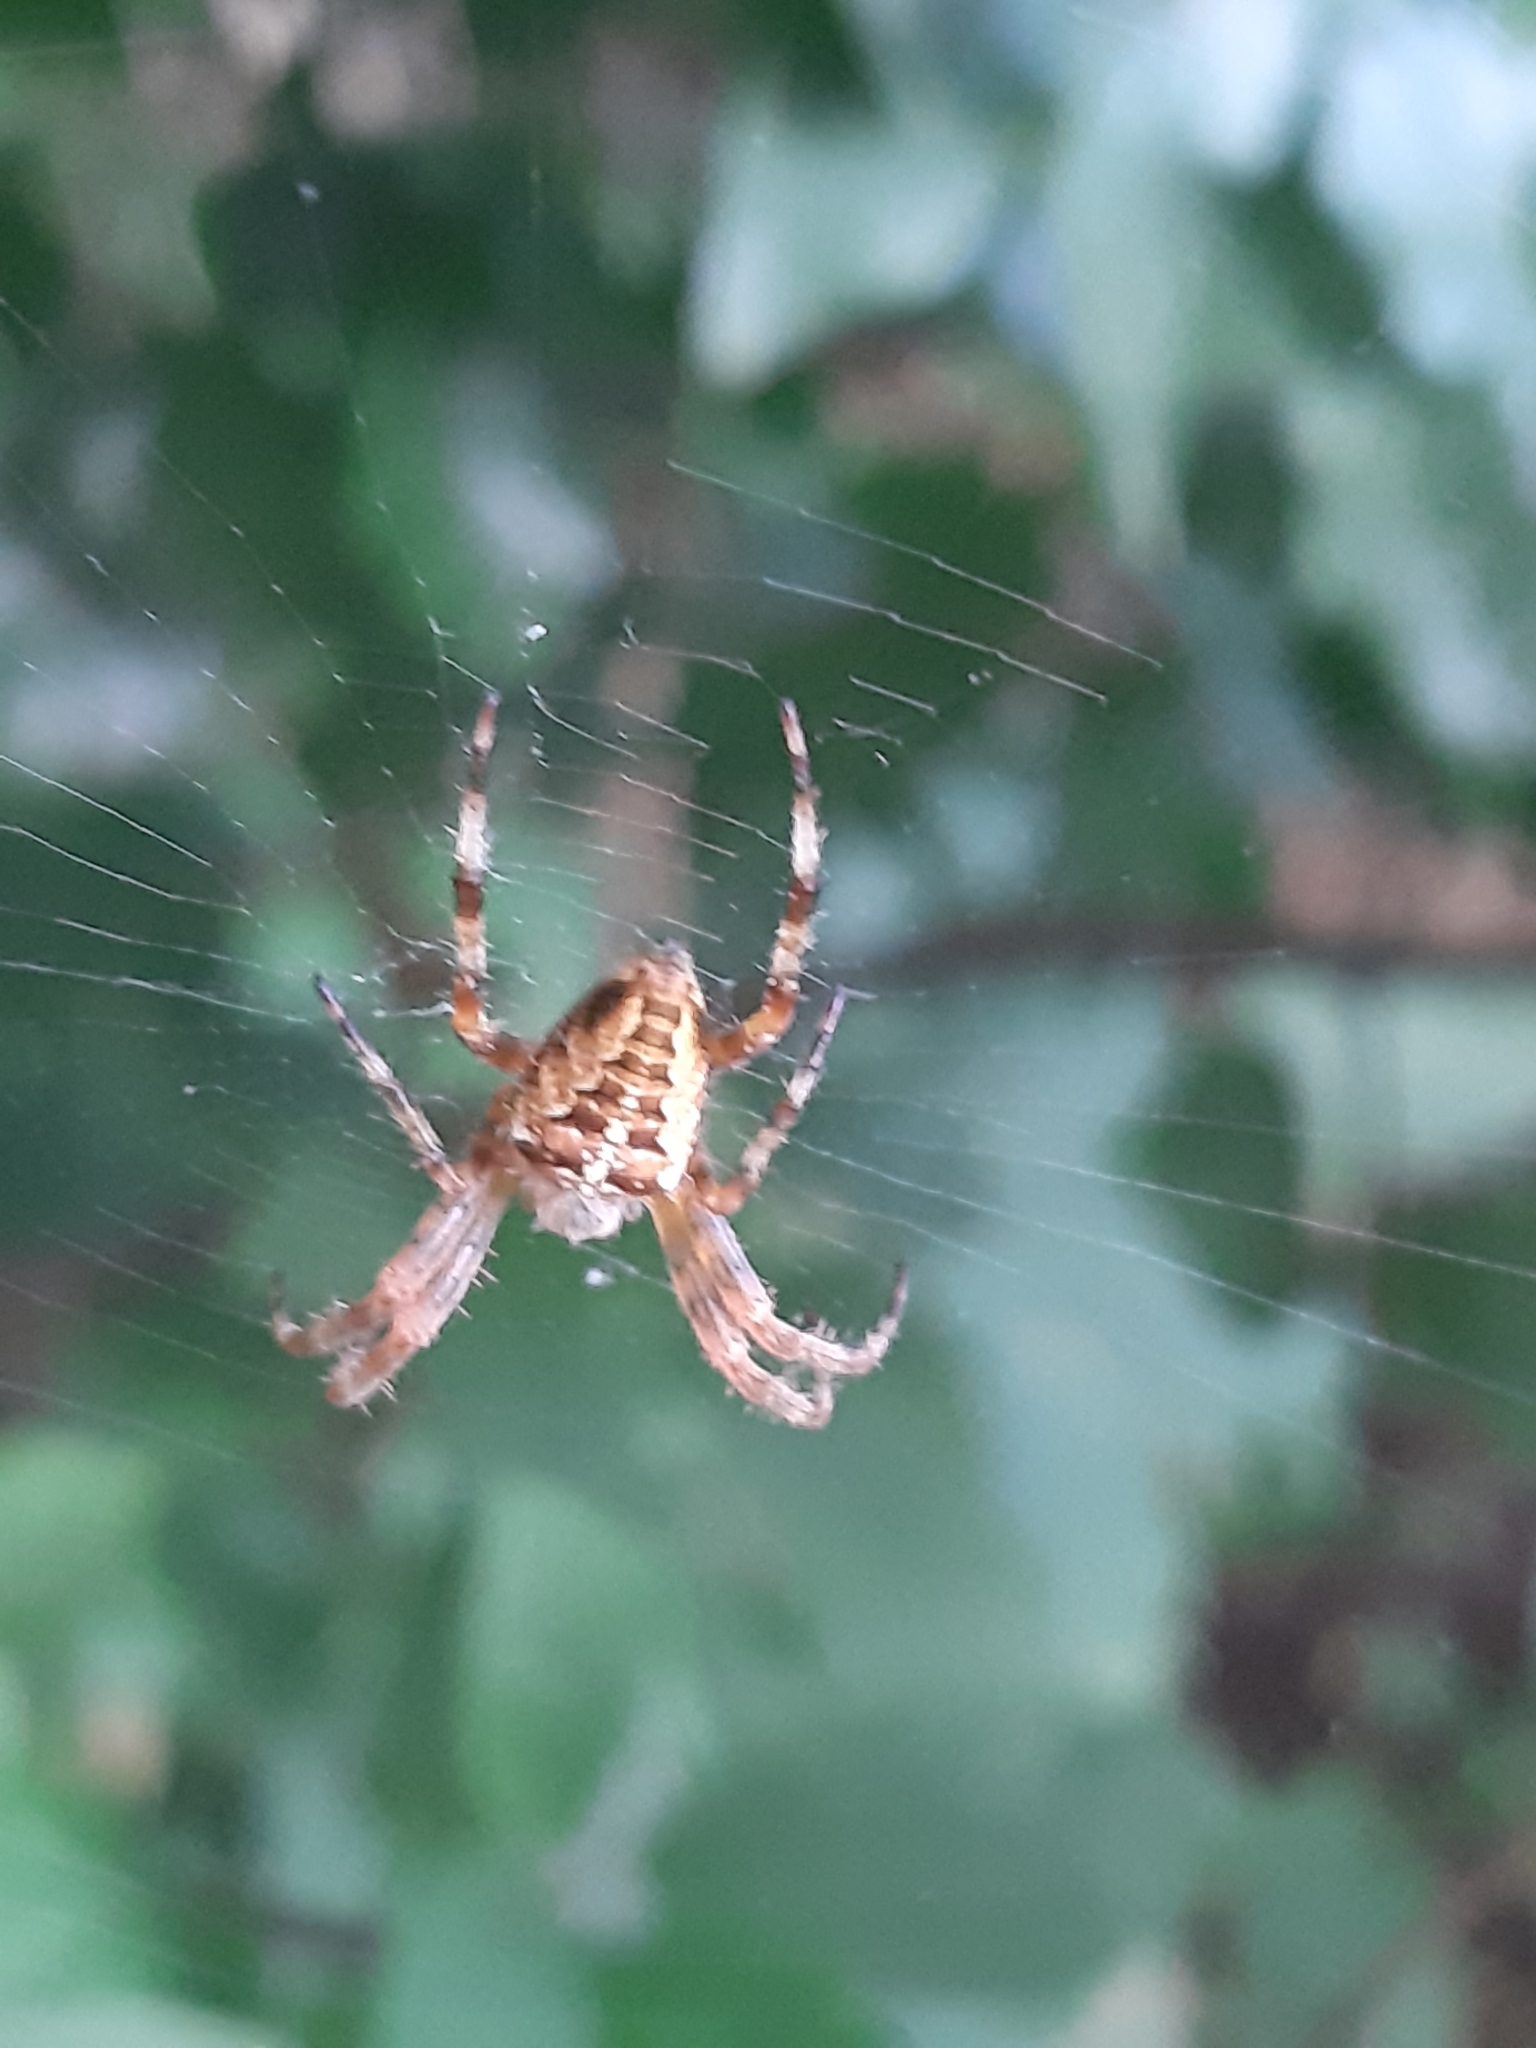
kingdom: Animalia
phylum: Arthropoda
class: Arachnida
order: Araneae
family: Araneidae
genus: Araneus
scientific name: Araneus diadematus
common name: Cross orbweaver
